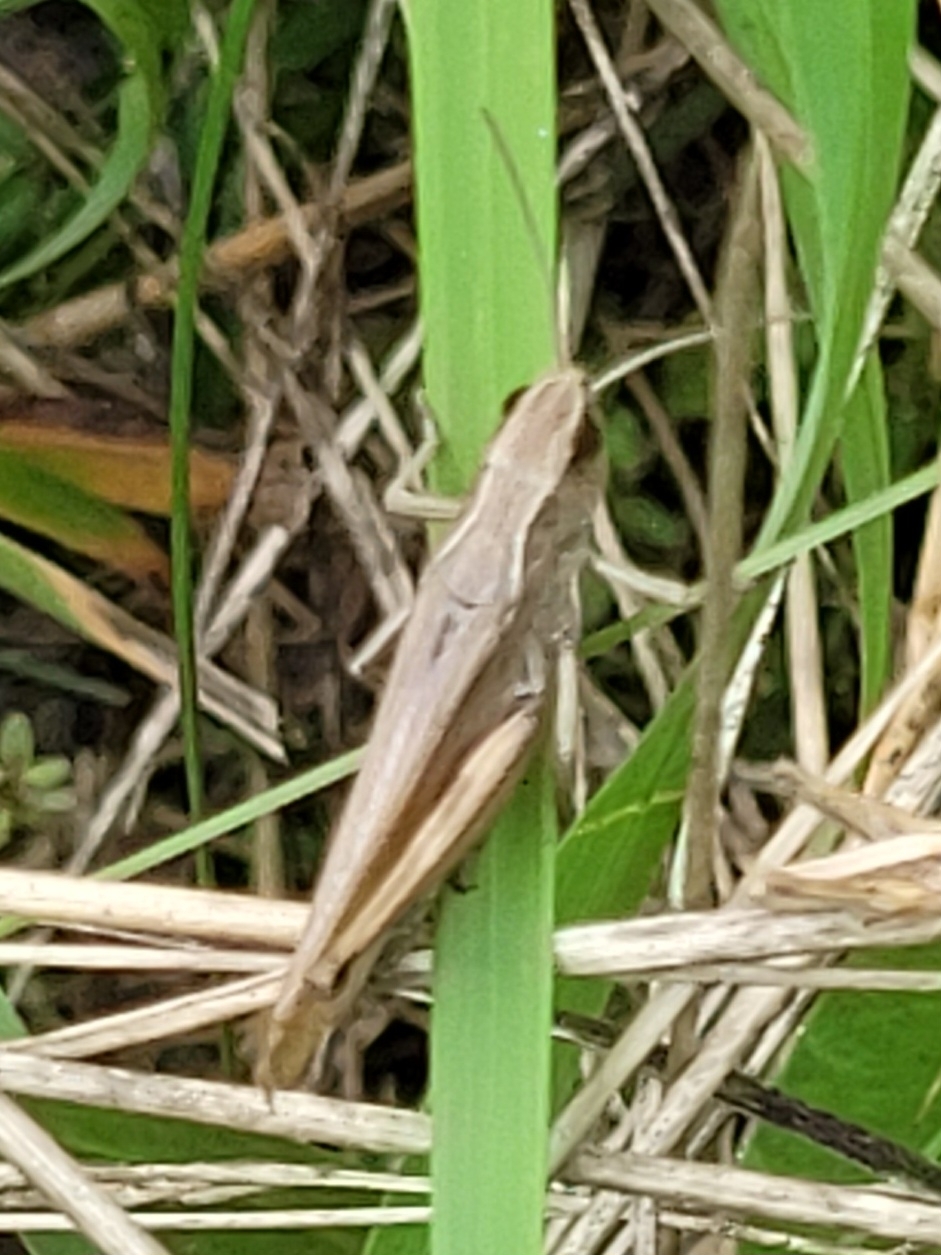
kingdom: Animalia
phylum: Arthropoda
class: Insecta
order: Orthoptera
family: Acrididae
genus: Pseudochorthippus
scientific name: Pseudochorthippus parallelus
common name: Meadow grasshopper
